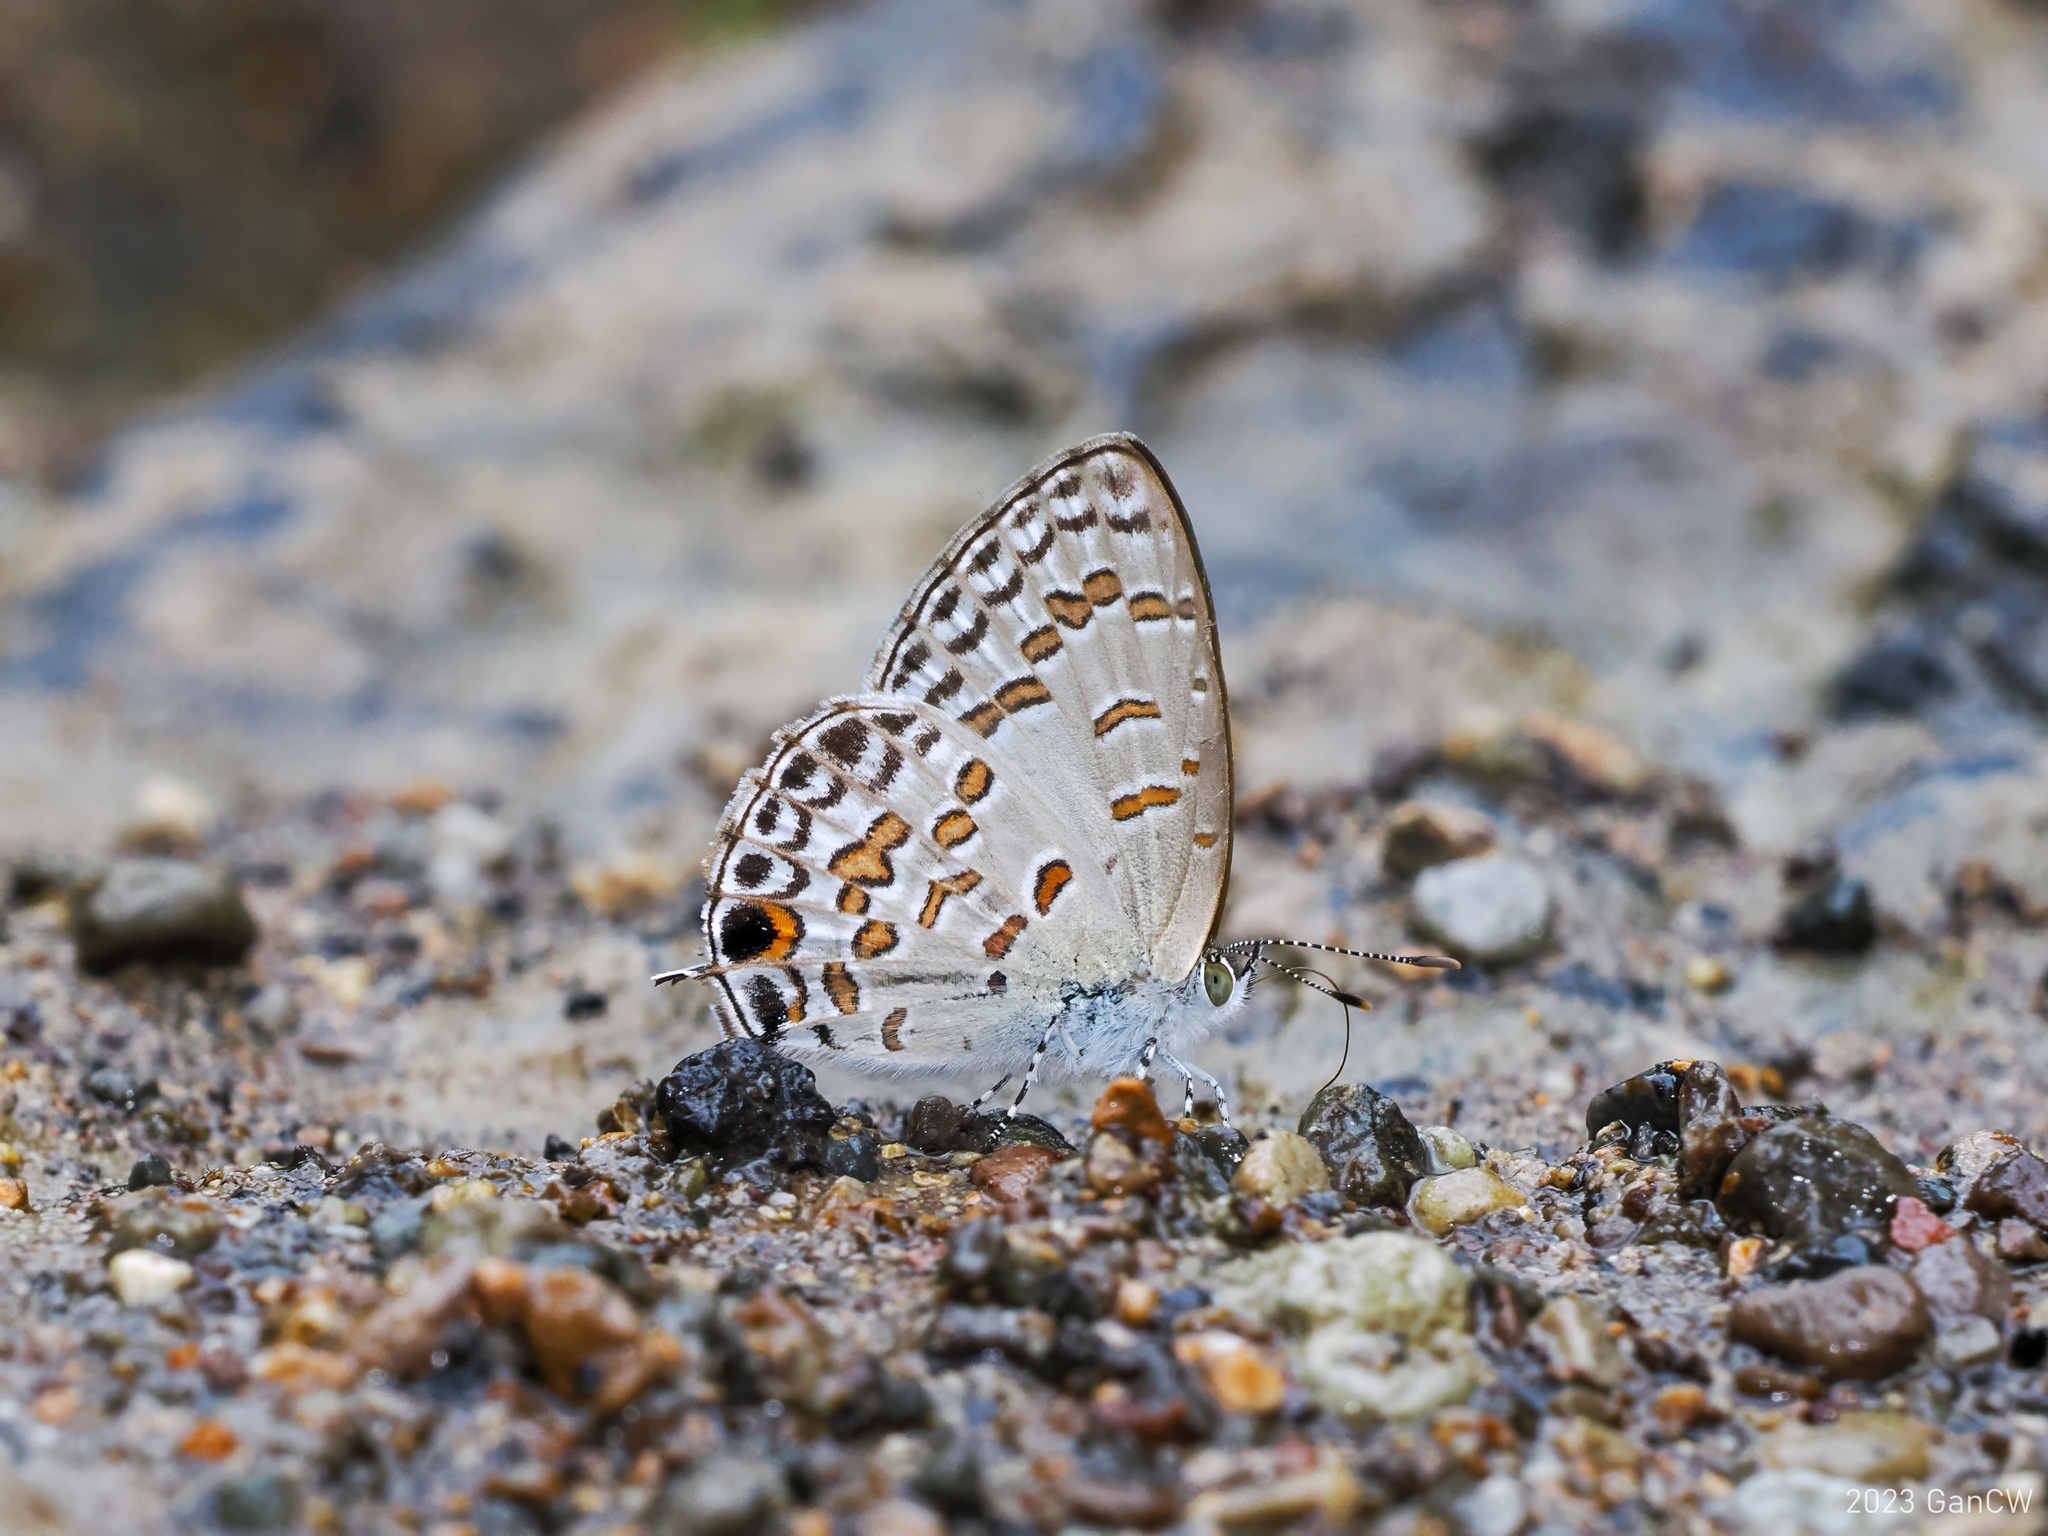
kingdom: Animalia
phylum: Arthropoda
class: Insecta
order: Lepidoptera
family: Lycaenidae
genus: Catopyrops
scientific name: Catopyrops rita
